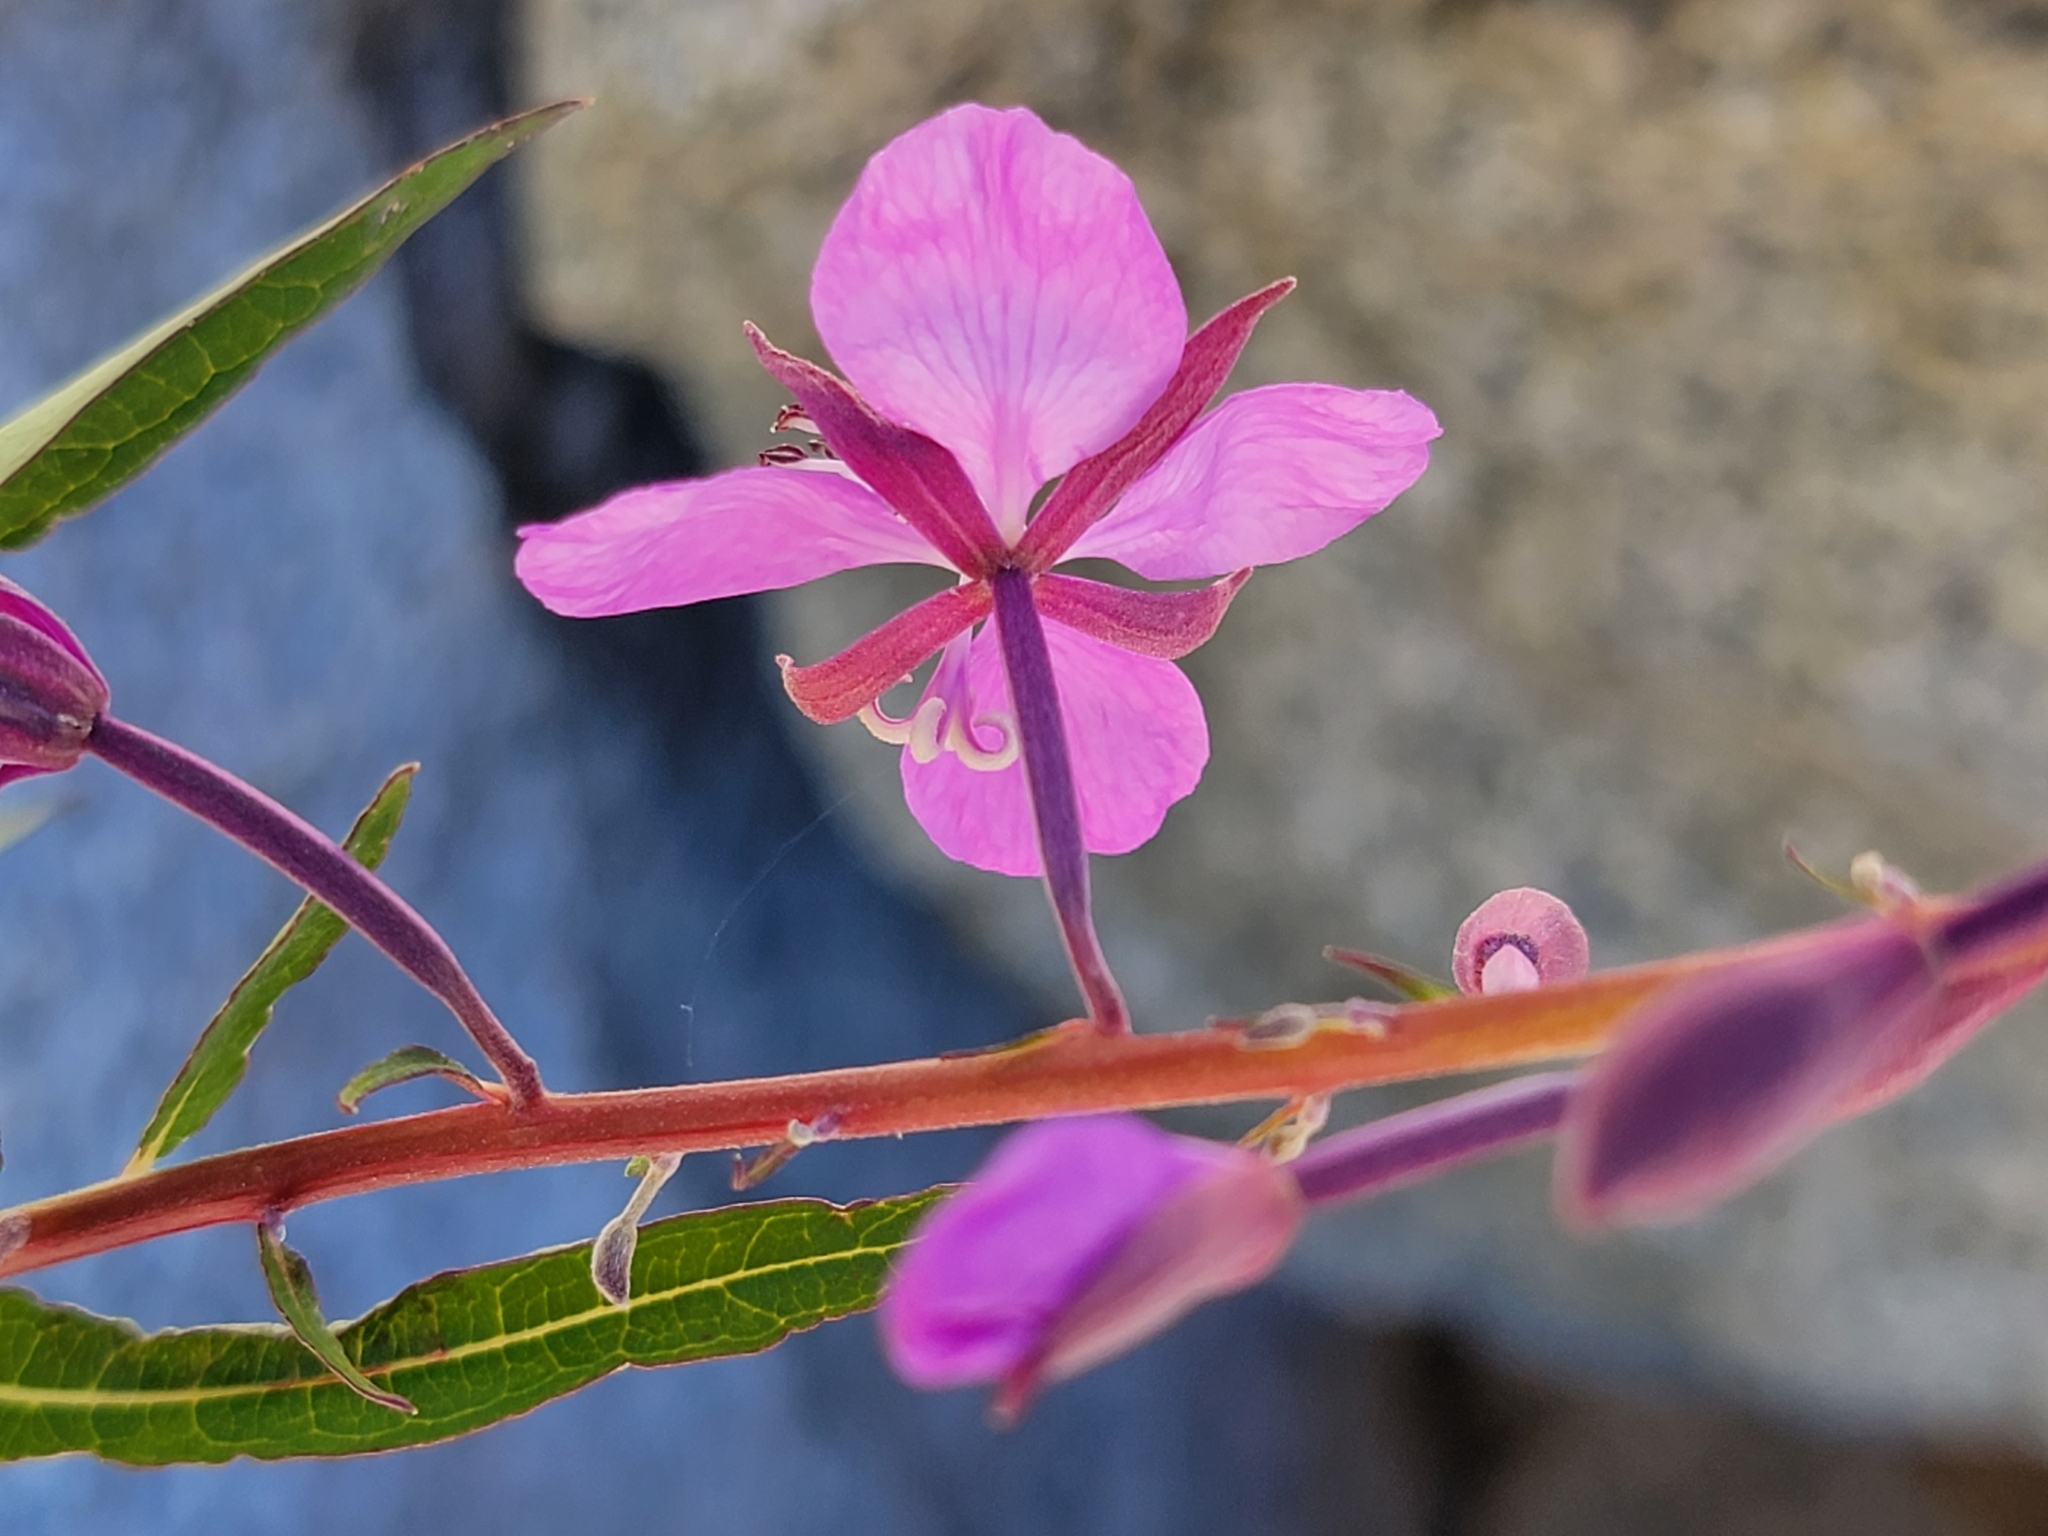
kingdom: Plantae
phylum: Tracheophyta
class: Magnoliopsida
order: Myrtales
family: Onagraceae
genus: Chamaenerion
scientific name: Chamaenerion angustifolium
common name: Fireweed
